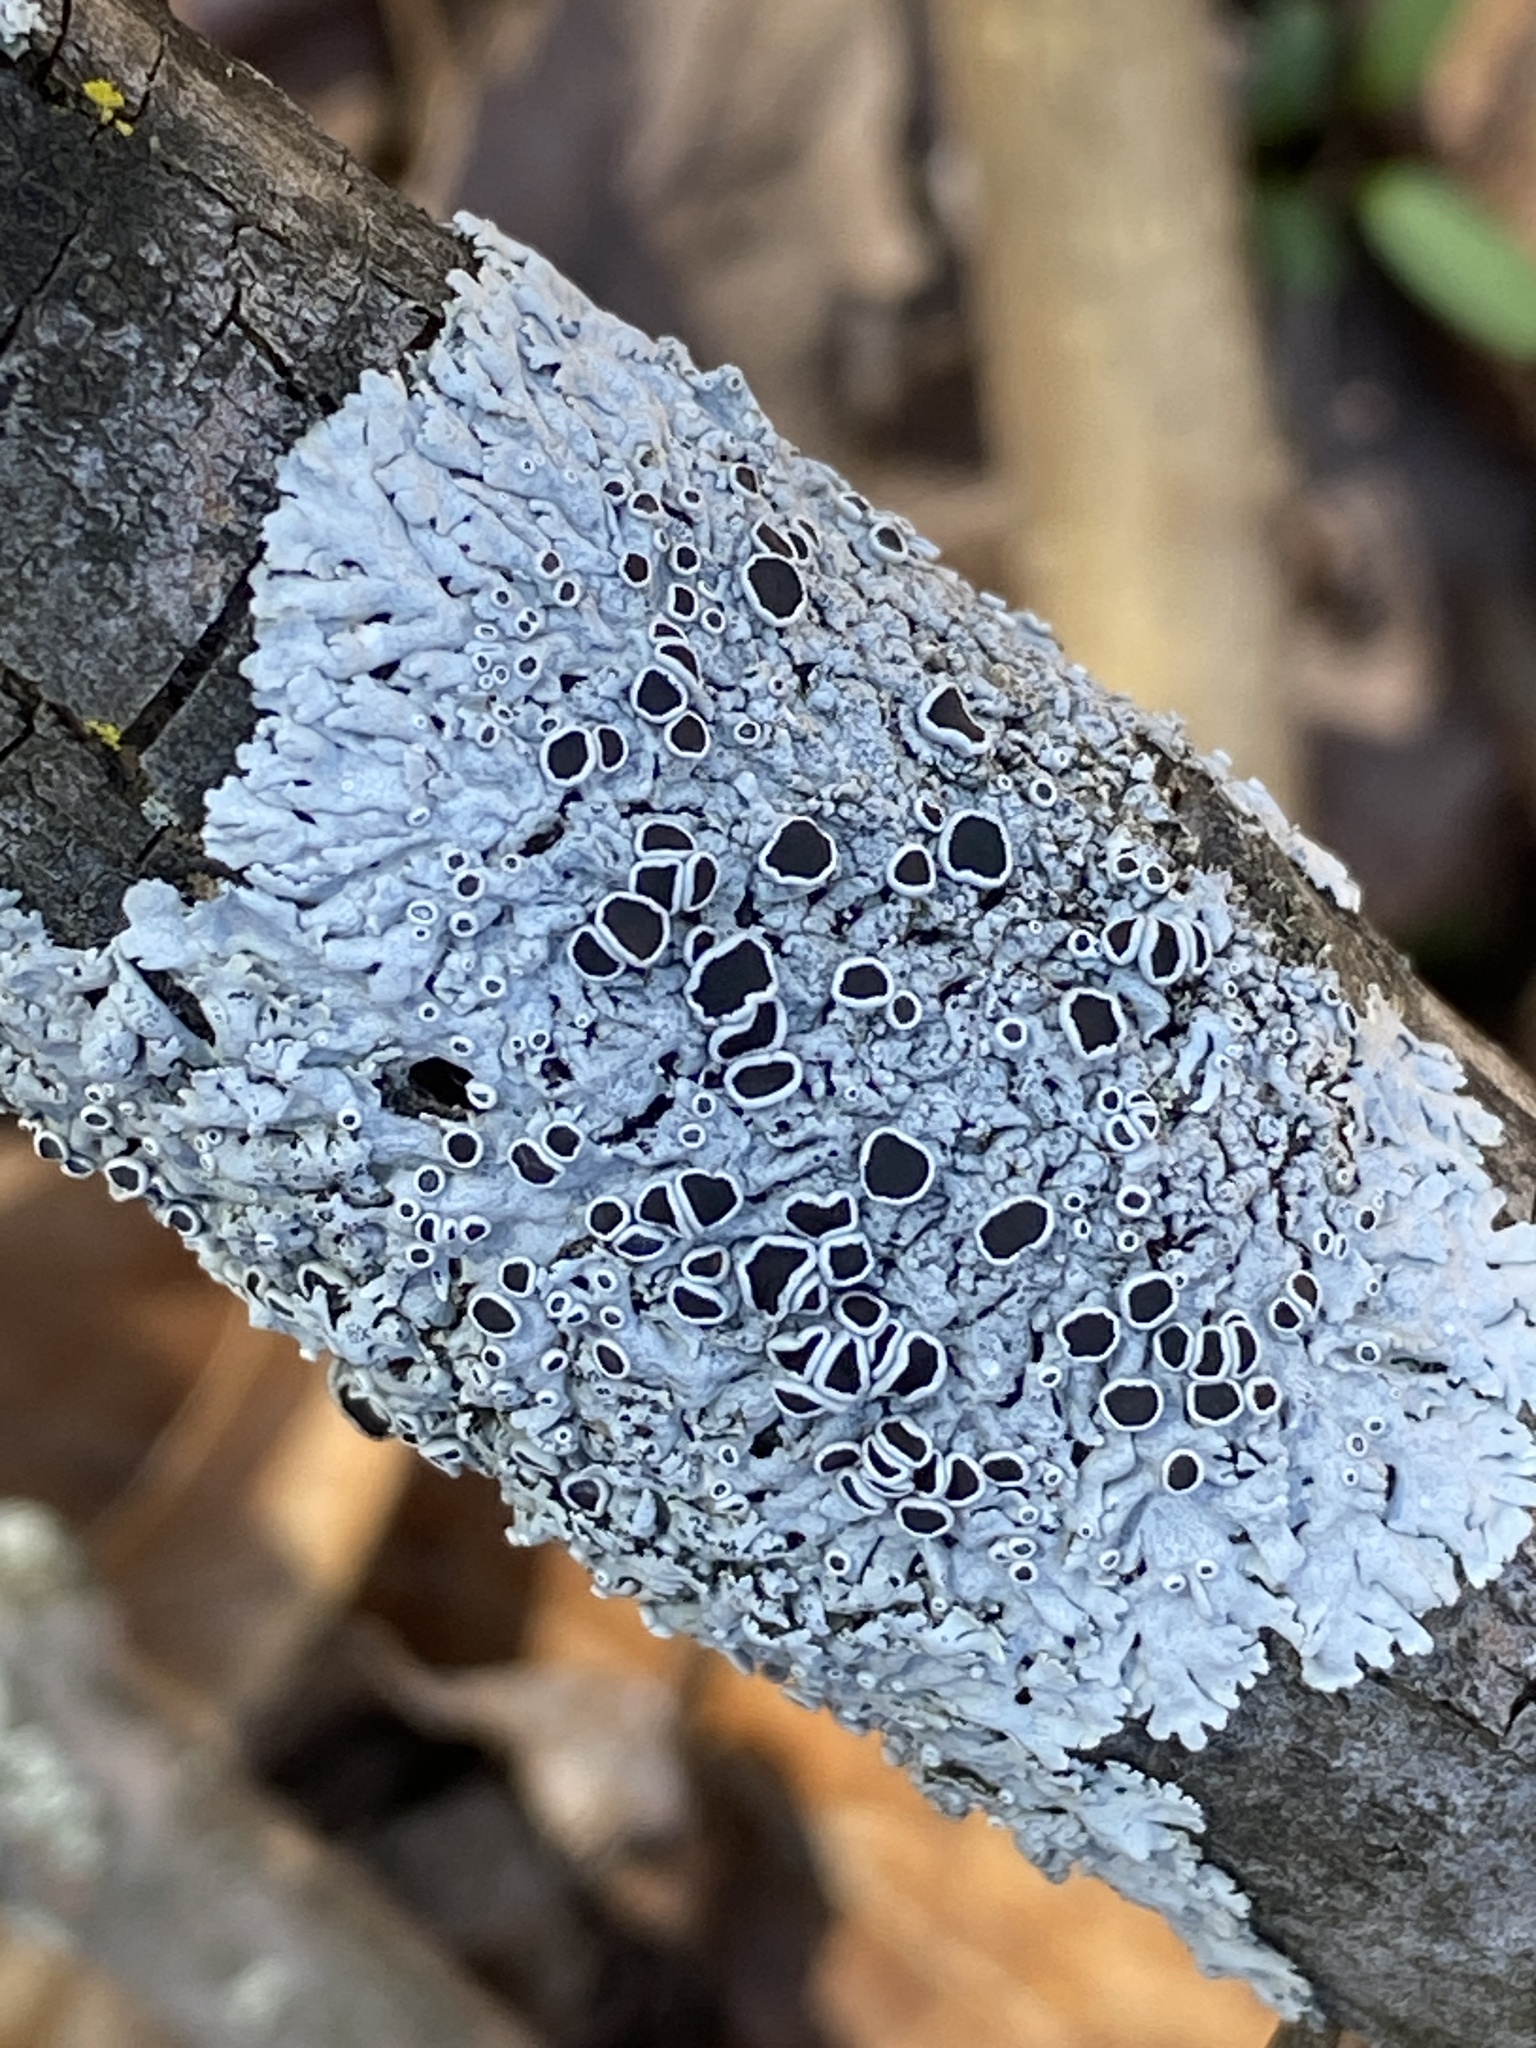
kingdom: Fungi
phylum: Ascomycota
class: Lecanoromycetes
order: Caliciales
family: Physciaceae
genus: Physcia
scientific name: Physcia stellaris
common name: Star rosette lichen
